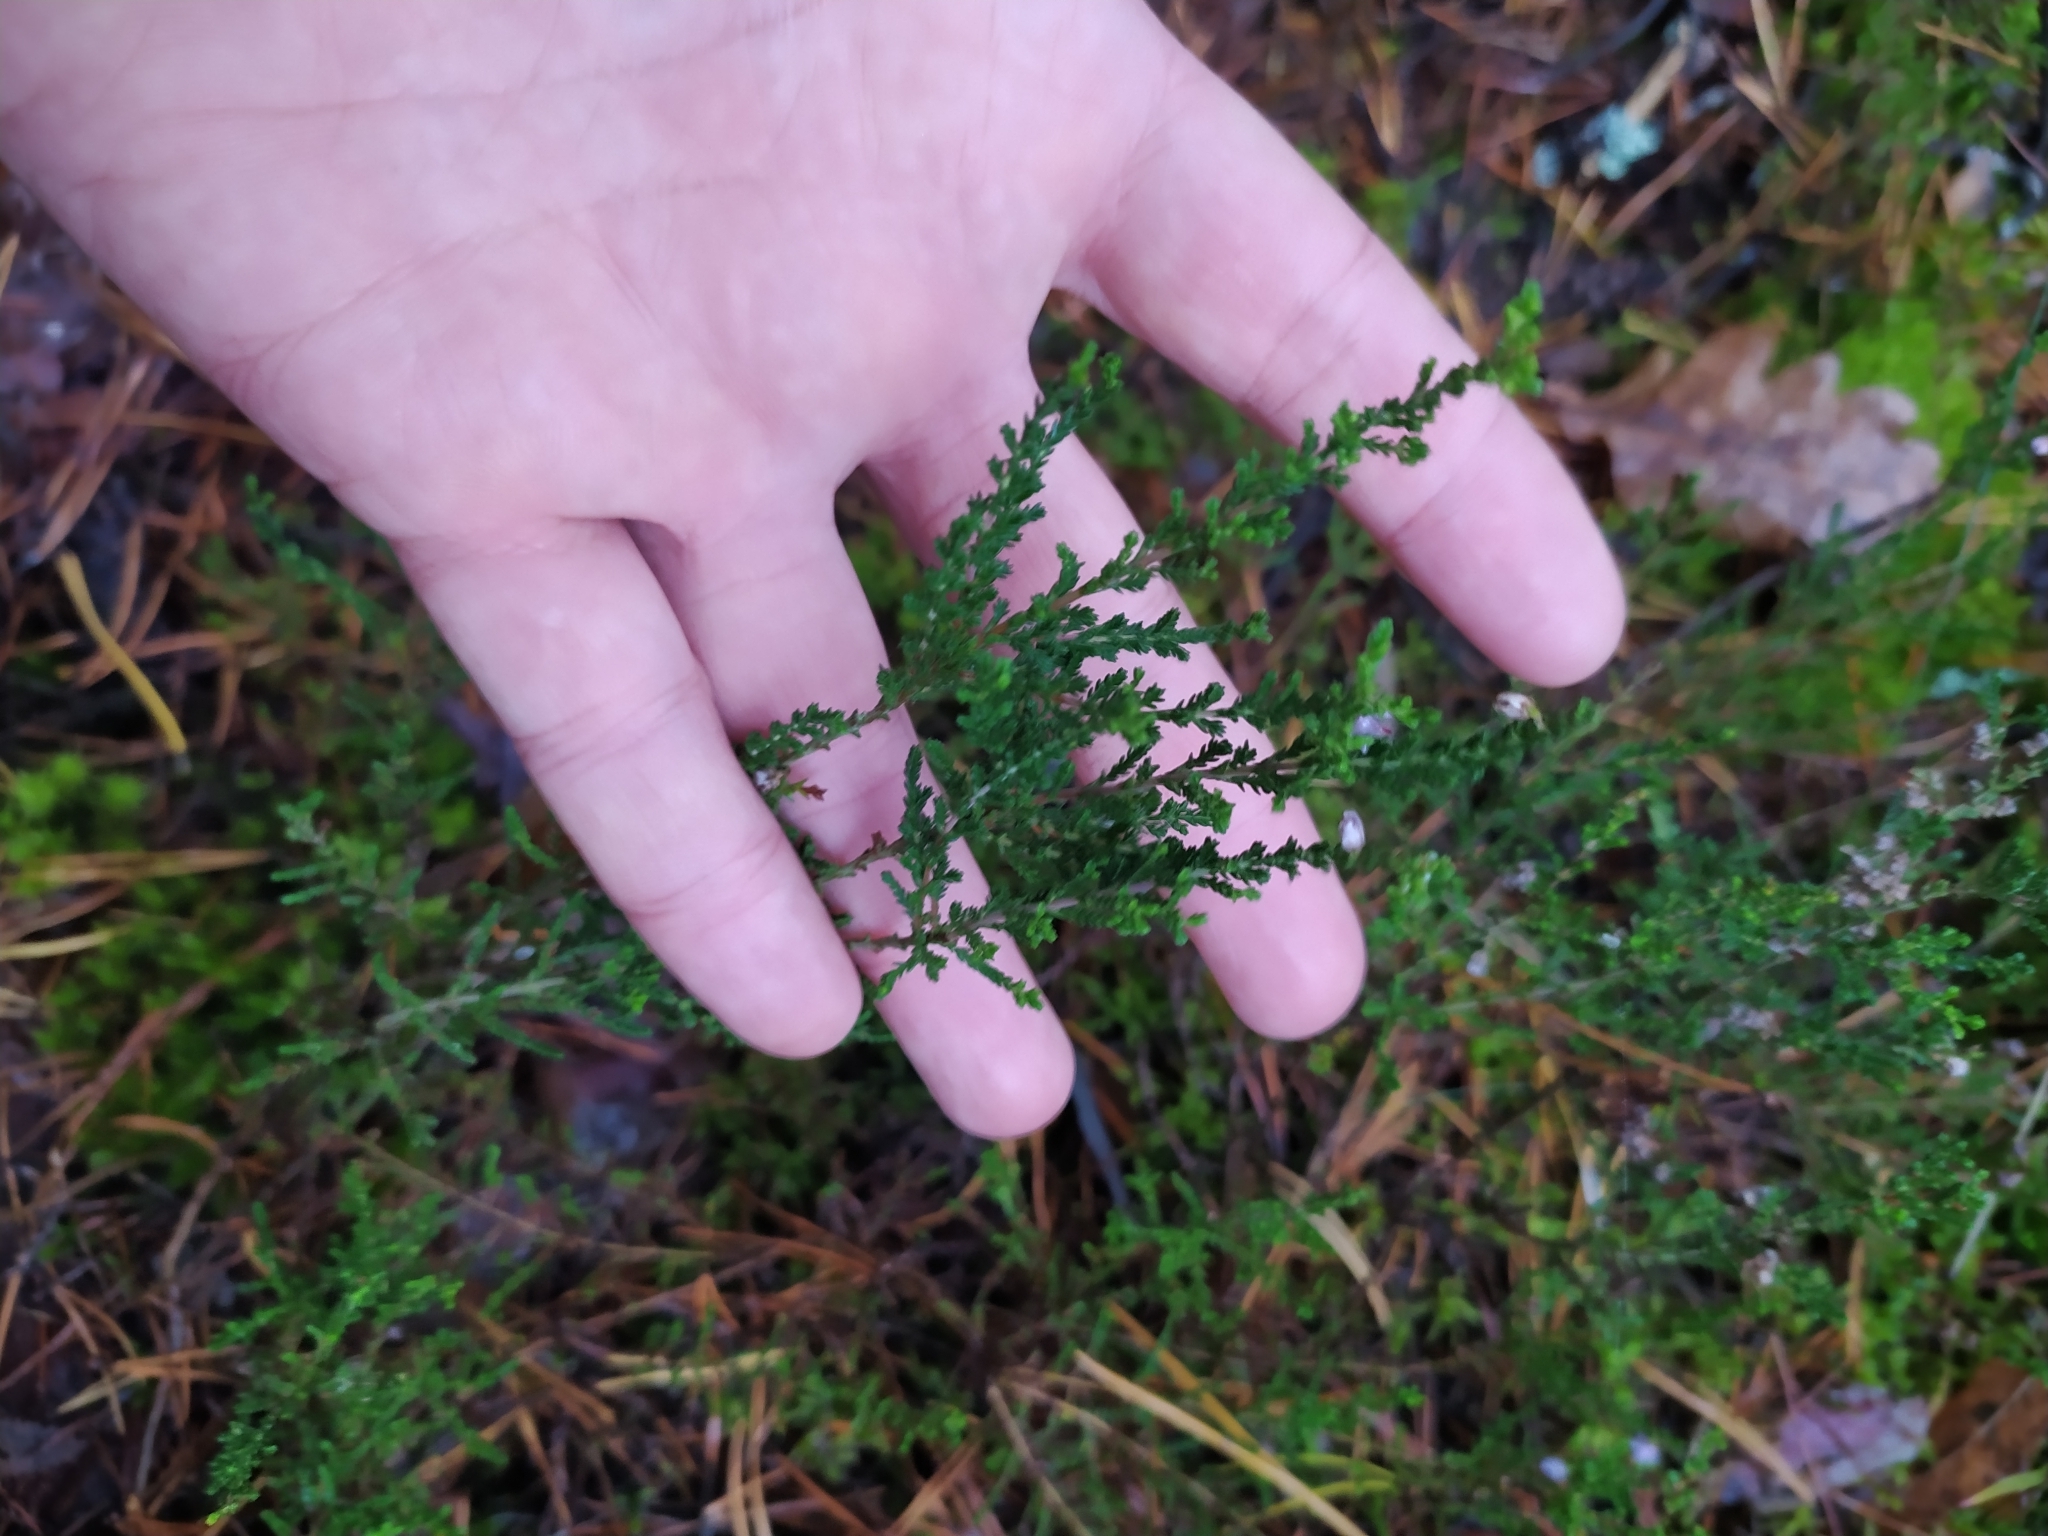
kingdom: Plantae
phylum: Tracheophyta
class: Magnoliopsida
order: Ericales
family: Ericaceae
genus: Calluna
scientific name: Calluna vulgaris
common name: Heather
